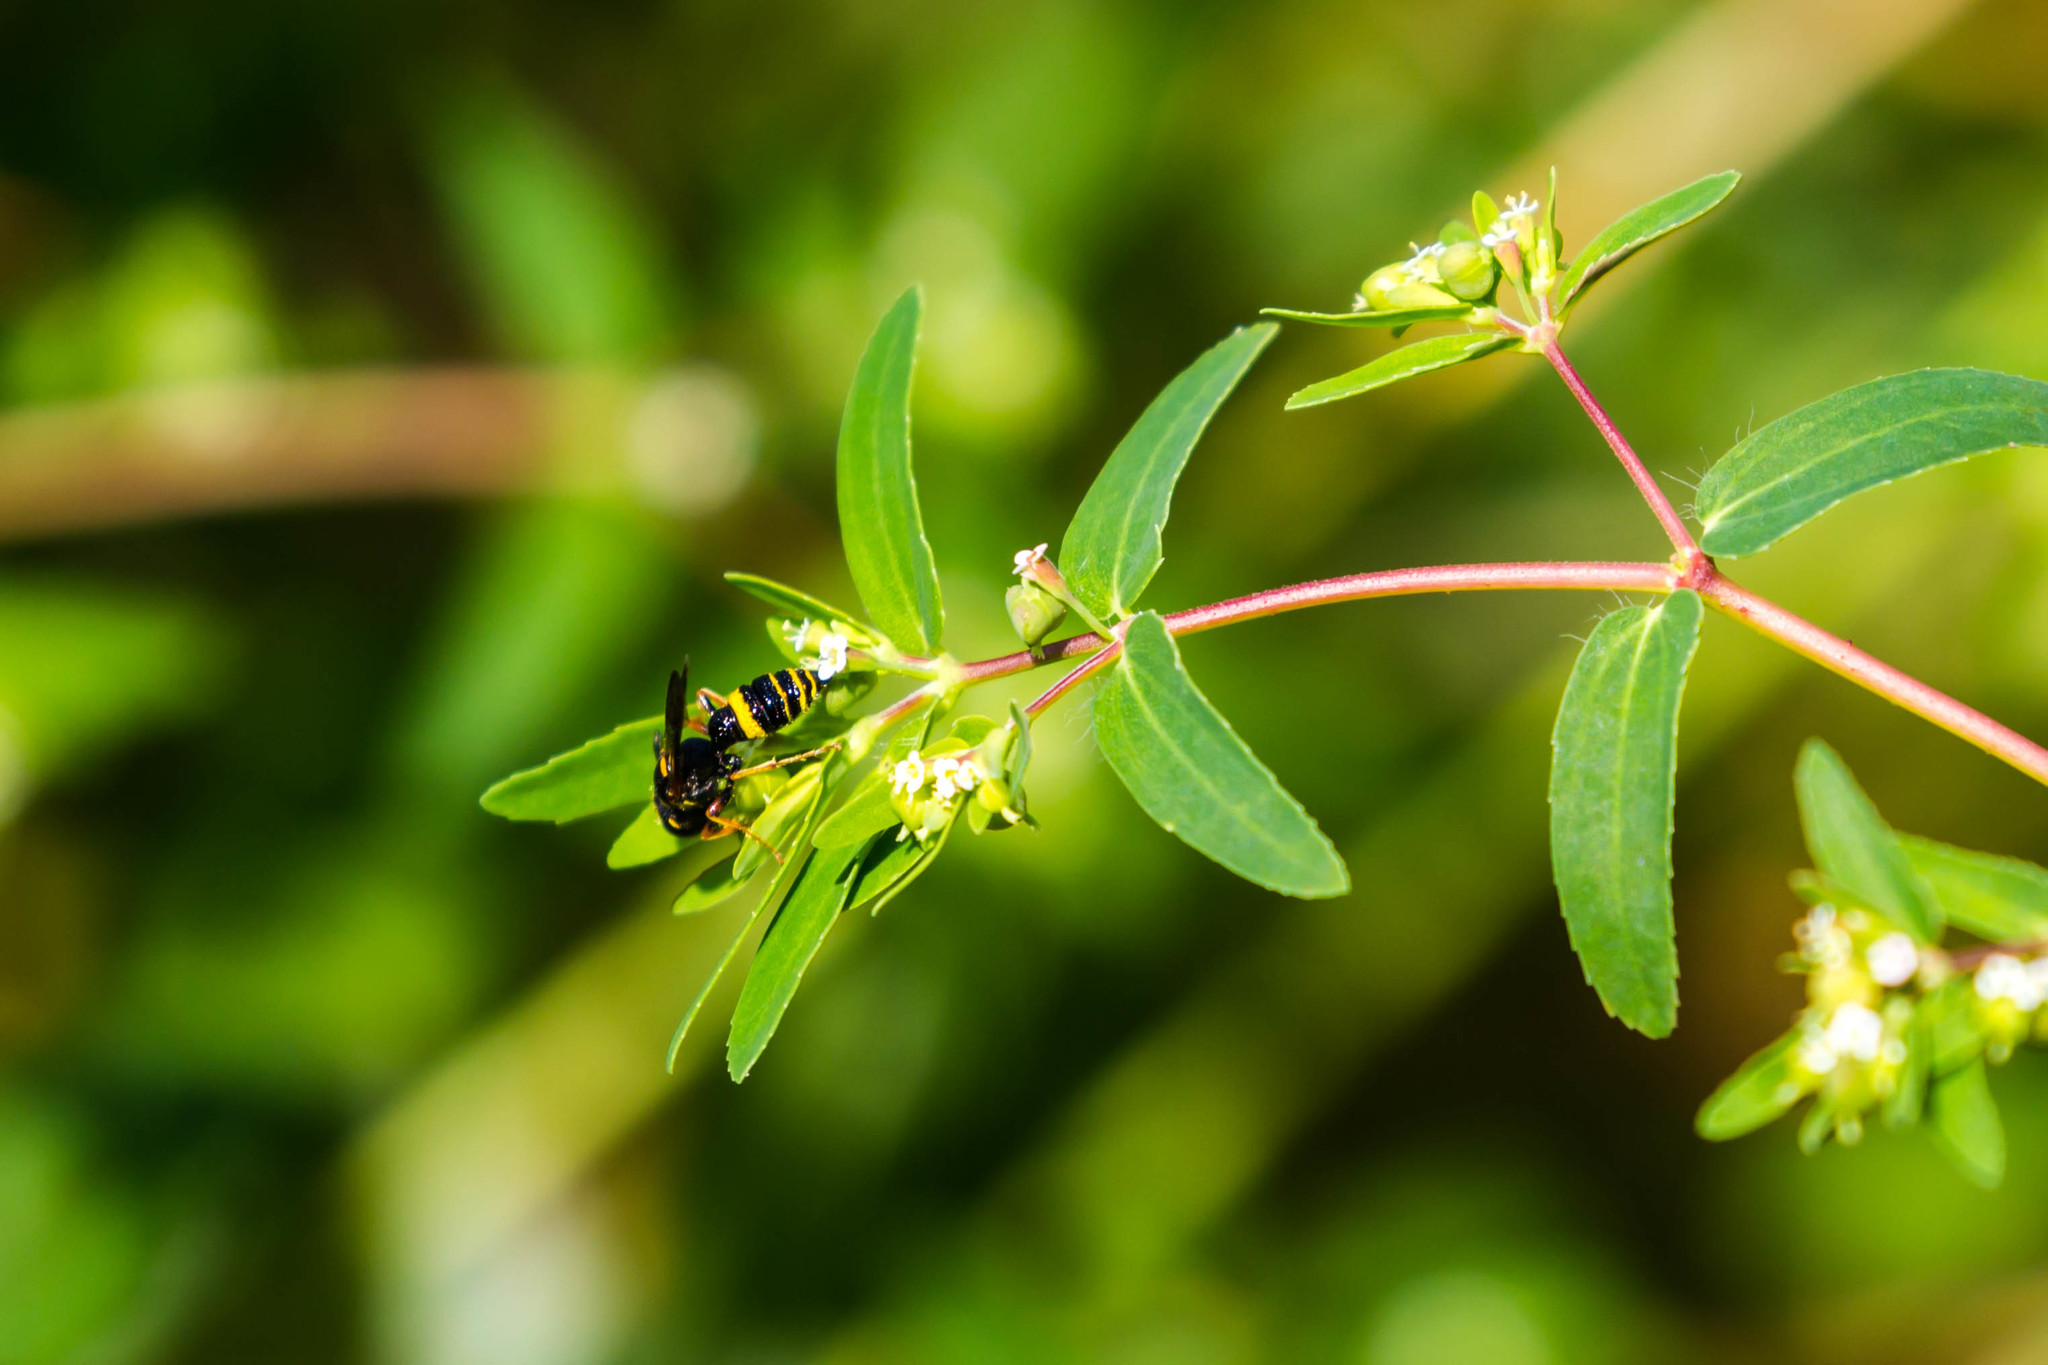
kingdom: Animalia
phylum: Arthropoda
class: Insecta
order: Hymenoptera
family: Crabronidae
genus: Philanthus
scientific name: Philanthus gibbosus
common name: Humped beewolf
